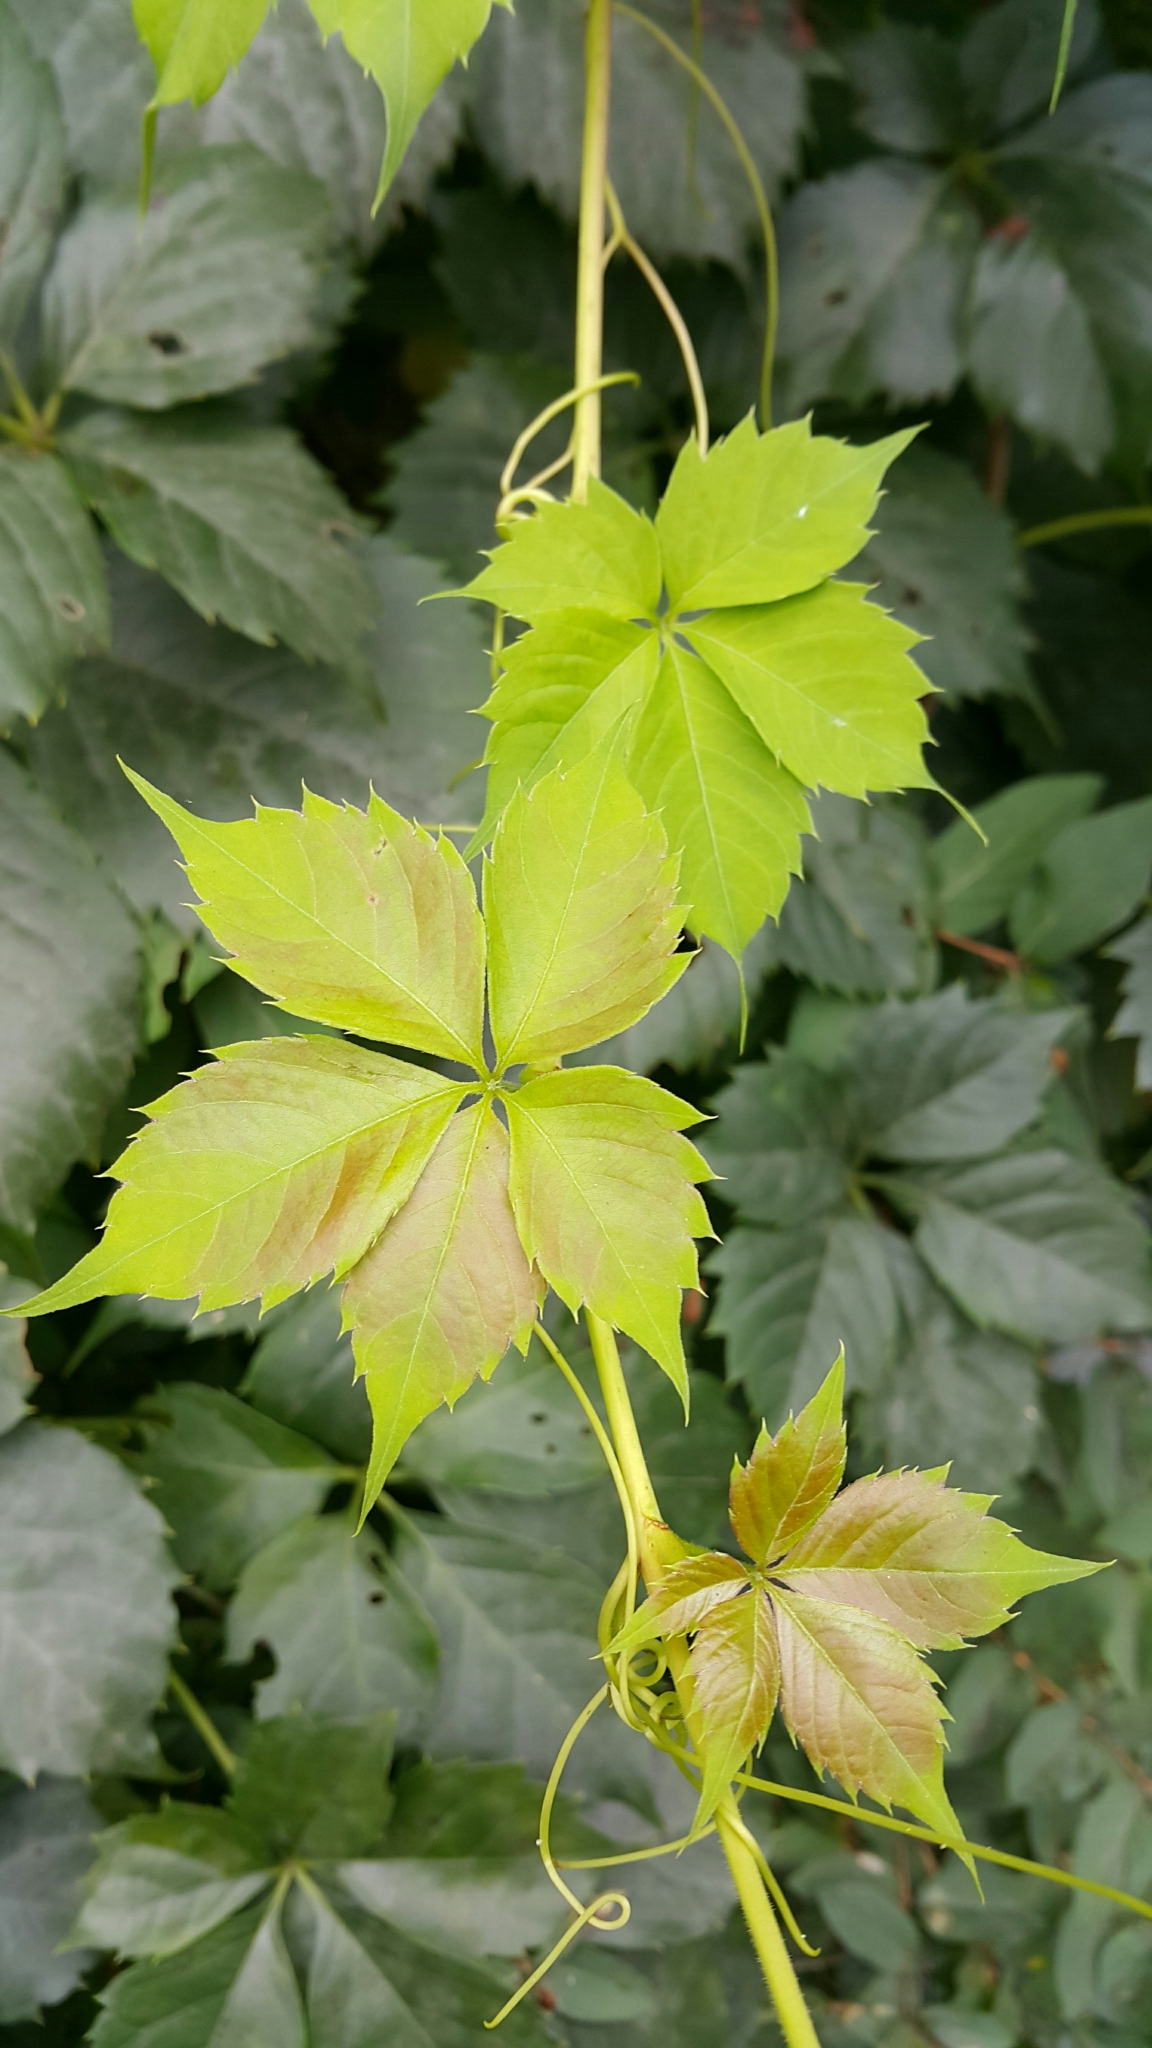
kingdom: Plantae
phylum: Tracheophyta
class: Magnoliopsida
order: Vitales
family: Vitaceae
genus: Parthenocissus
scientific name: Parthenocissus quinquefolia
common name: Virginia-creeper
